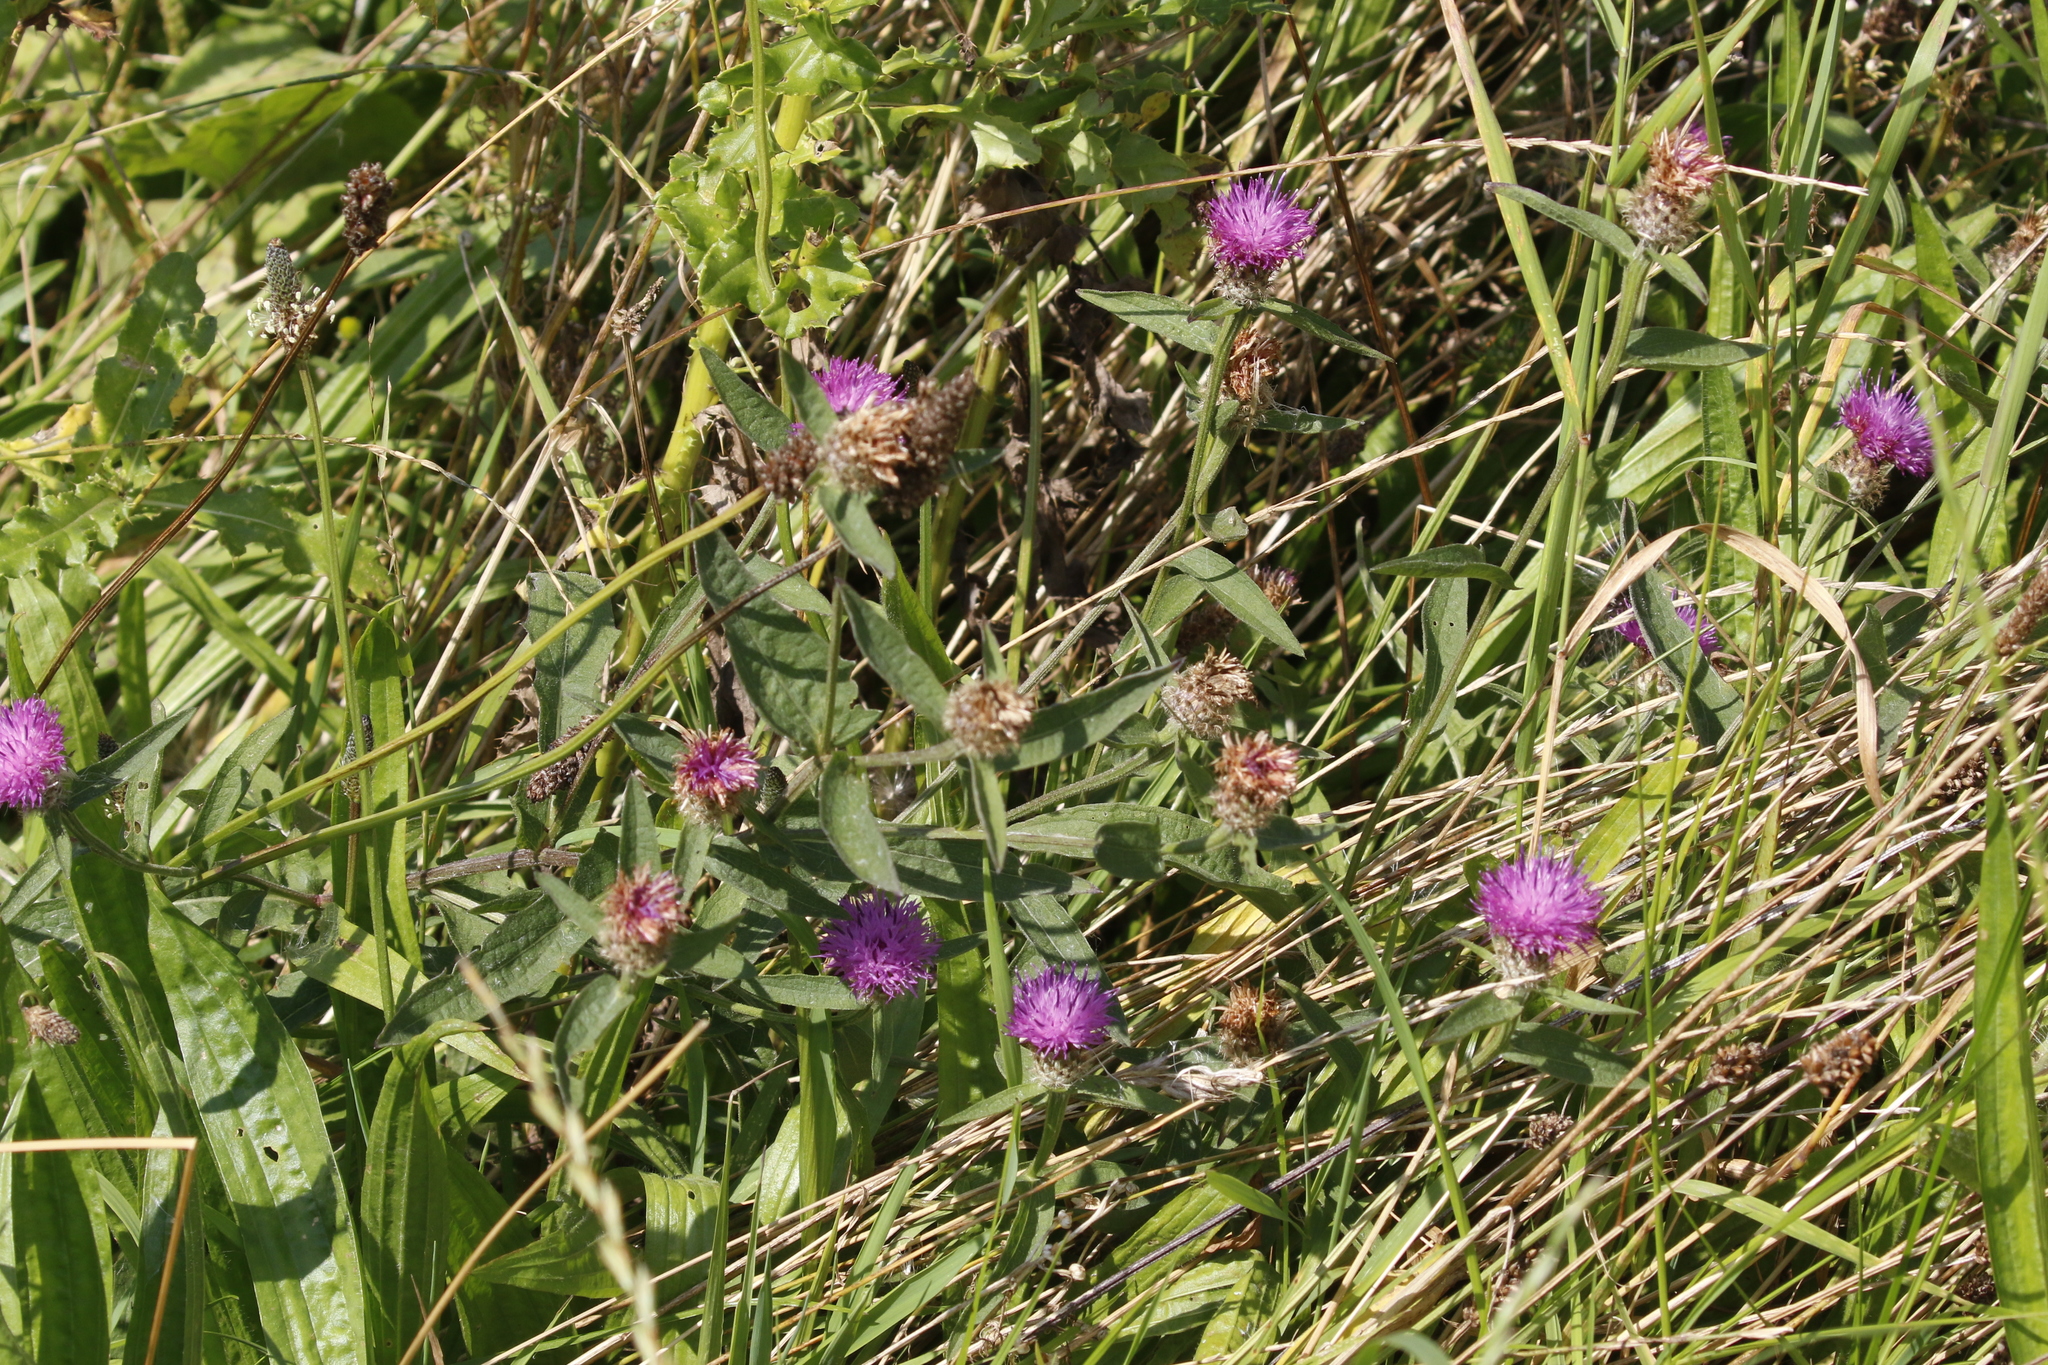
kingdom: Plantae
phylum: Tracheophyta
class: Magnoliopsida
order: Asterales
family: Asteraceae
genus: Centaurea
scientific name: Centaurea nigra
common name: Lesser knapweed
